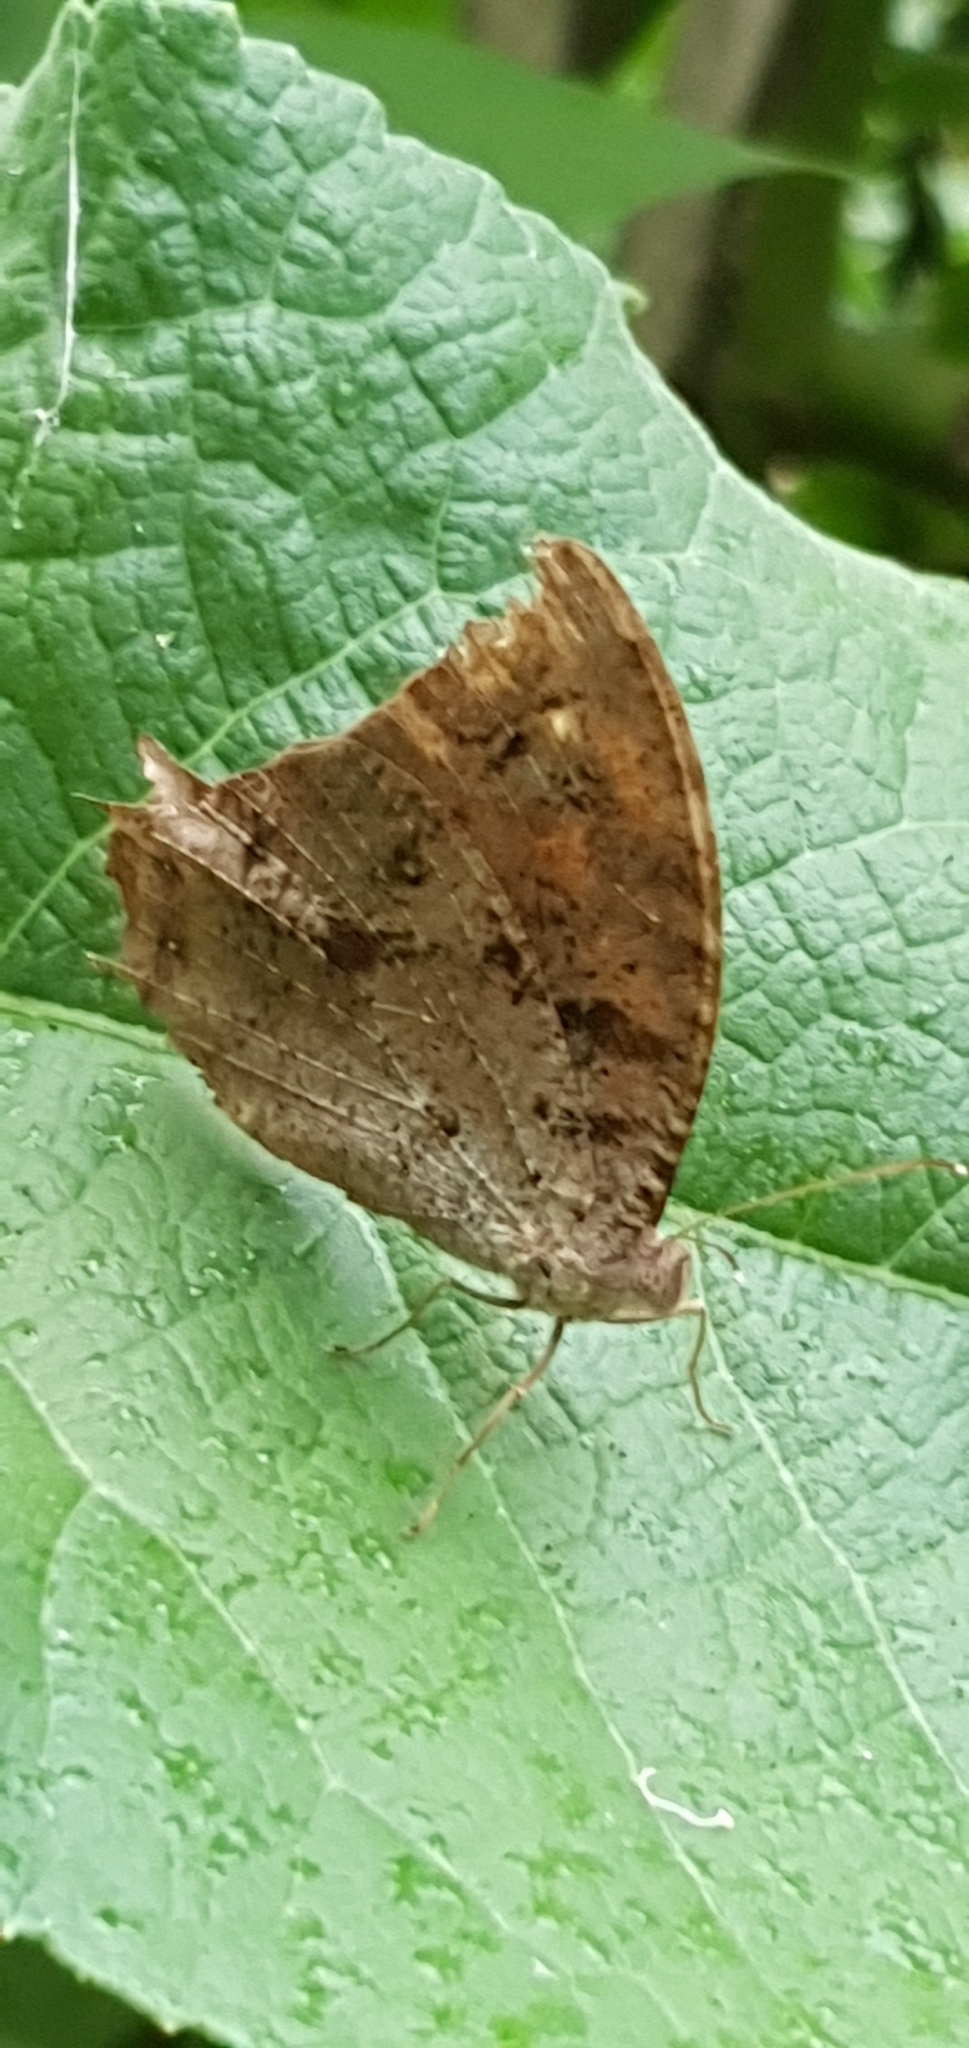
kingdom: Animalia
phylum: Arthropoda
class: Insecta
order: Lepidoptera
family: Nymphalidae
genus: Melanitis
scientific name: Melanitis leda
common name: Twilight brown
